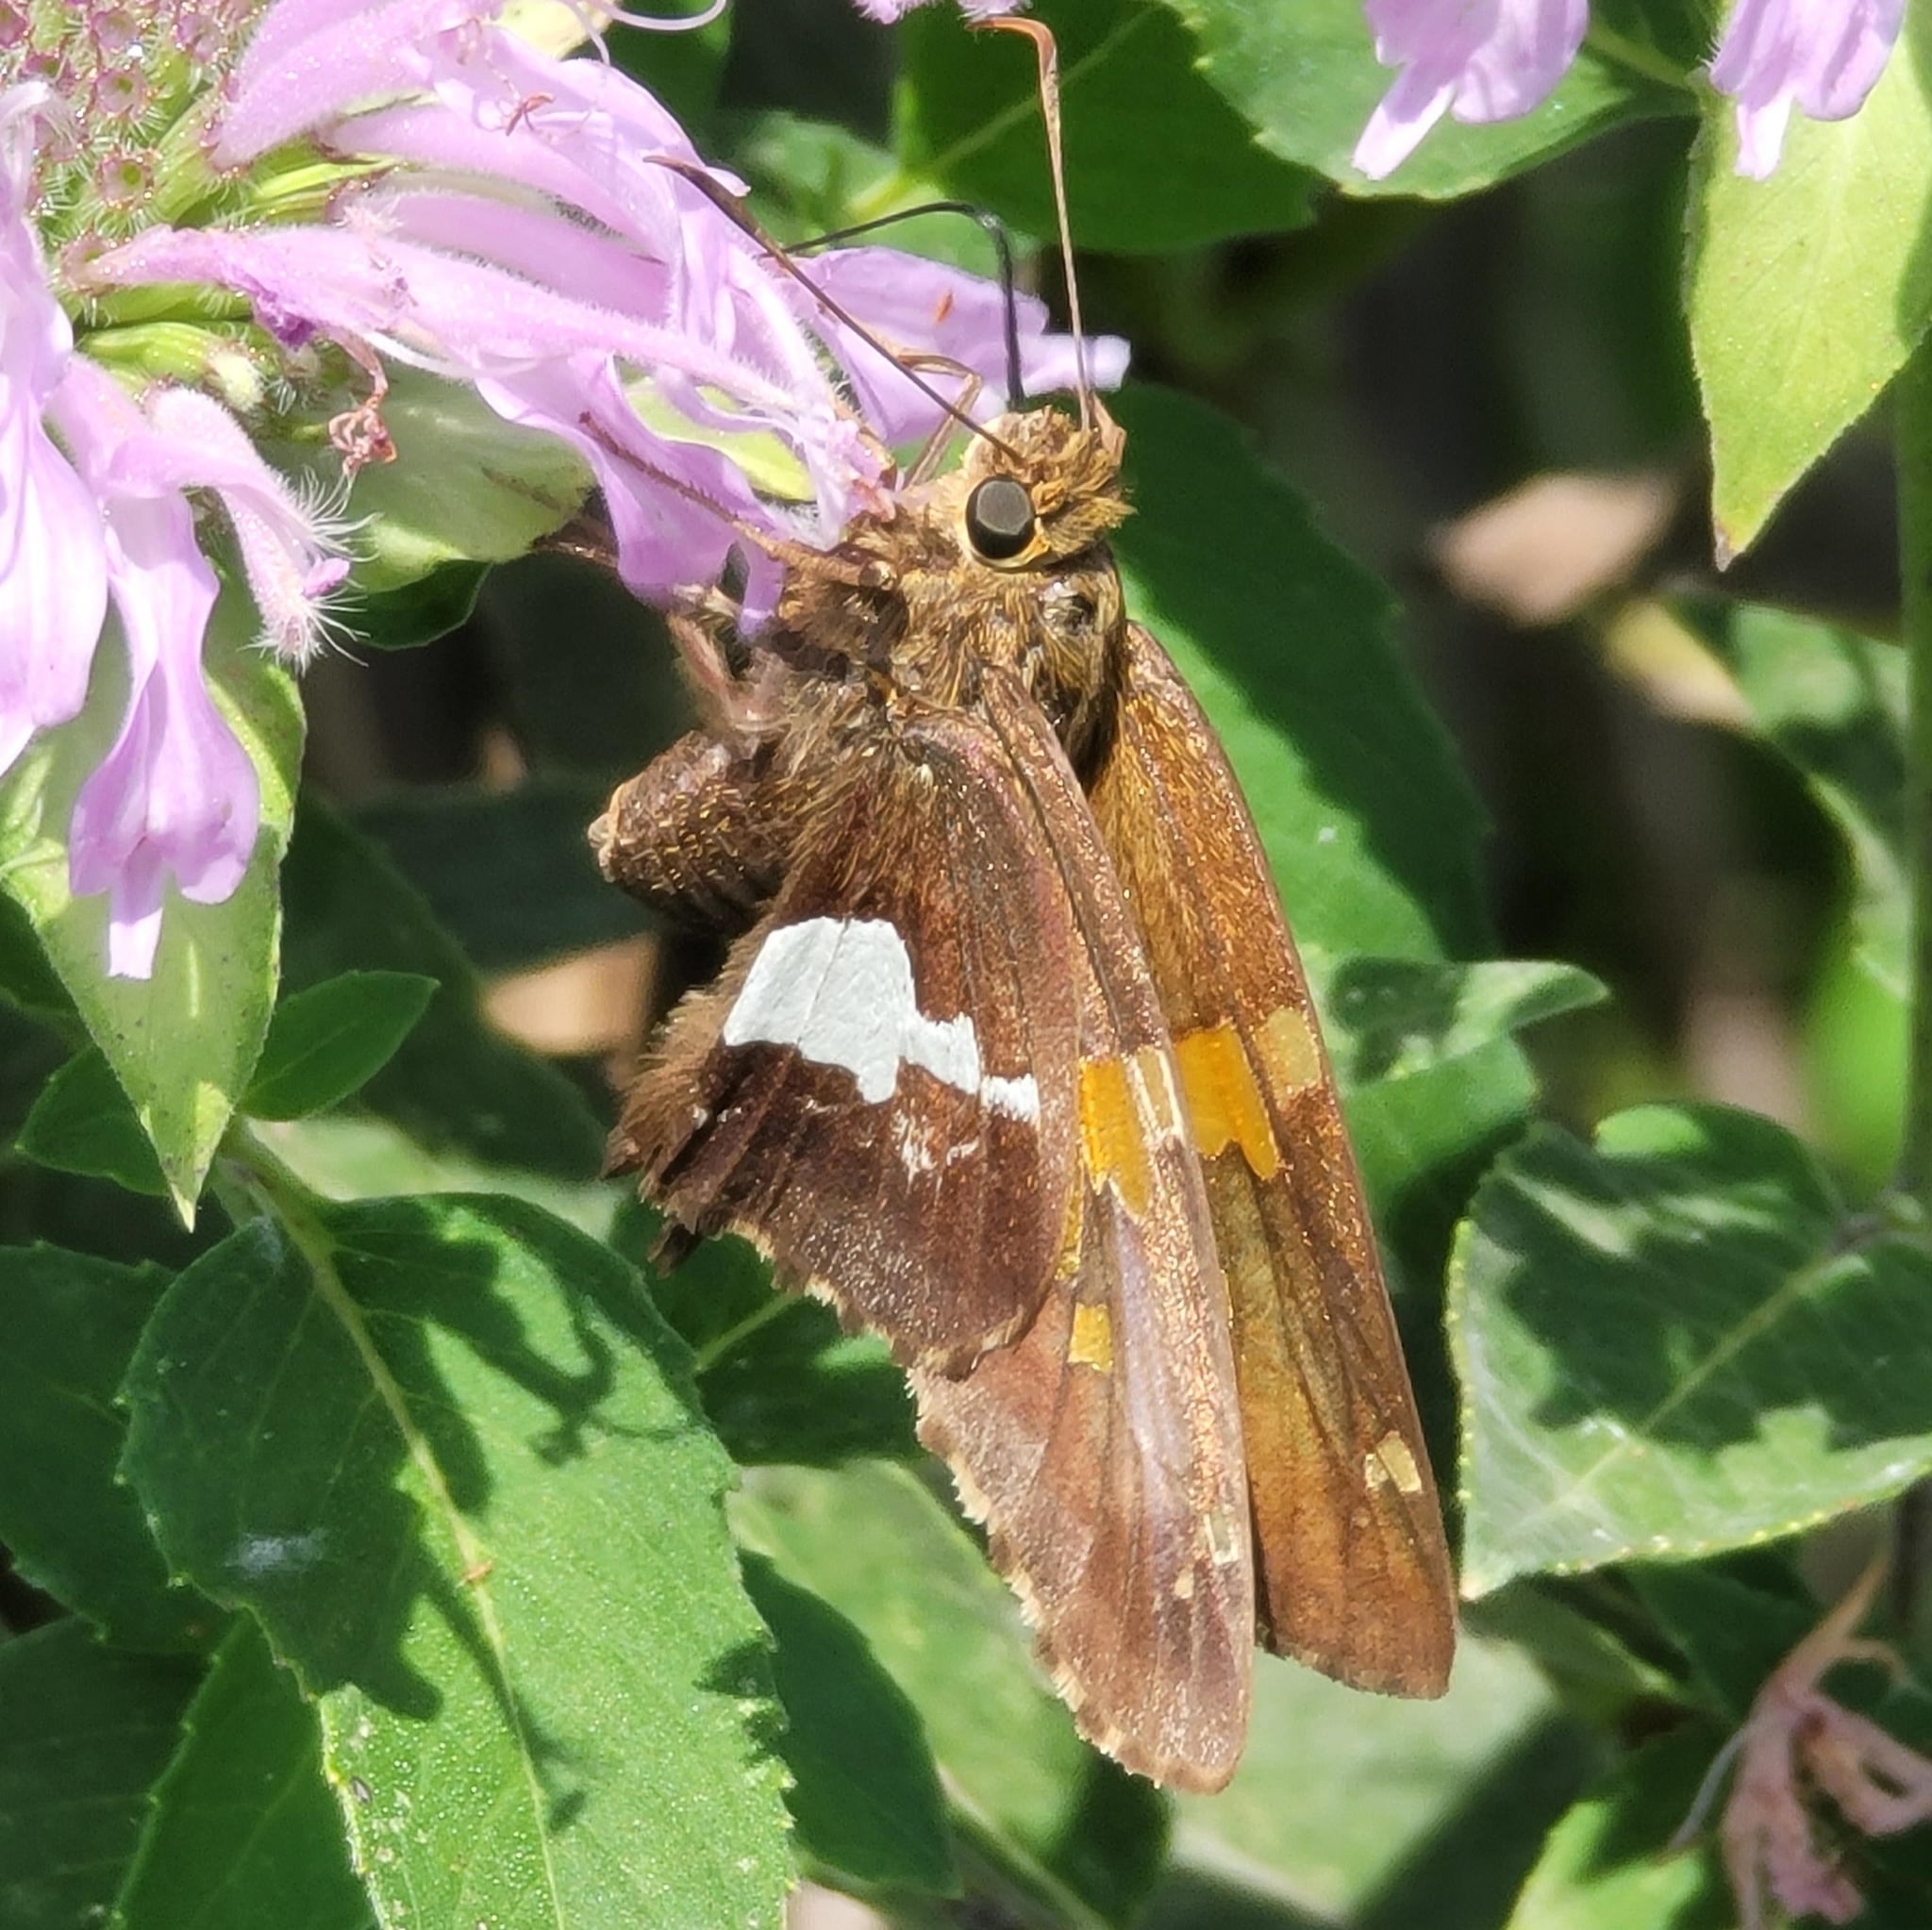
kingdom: Animalia
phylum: Arthropoda
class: Insecta
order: Lepidoptera
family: Hesperiidae
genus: Epargyreus
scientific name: Epargyreus clarus
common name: Silver-spotted skipper
